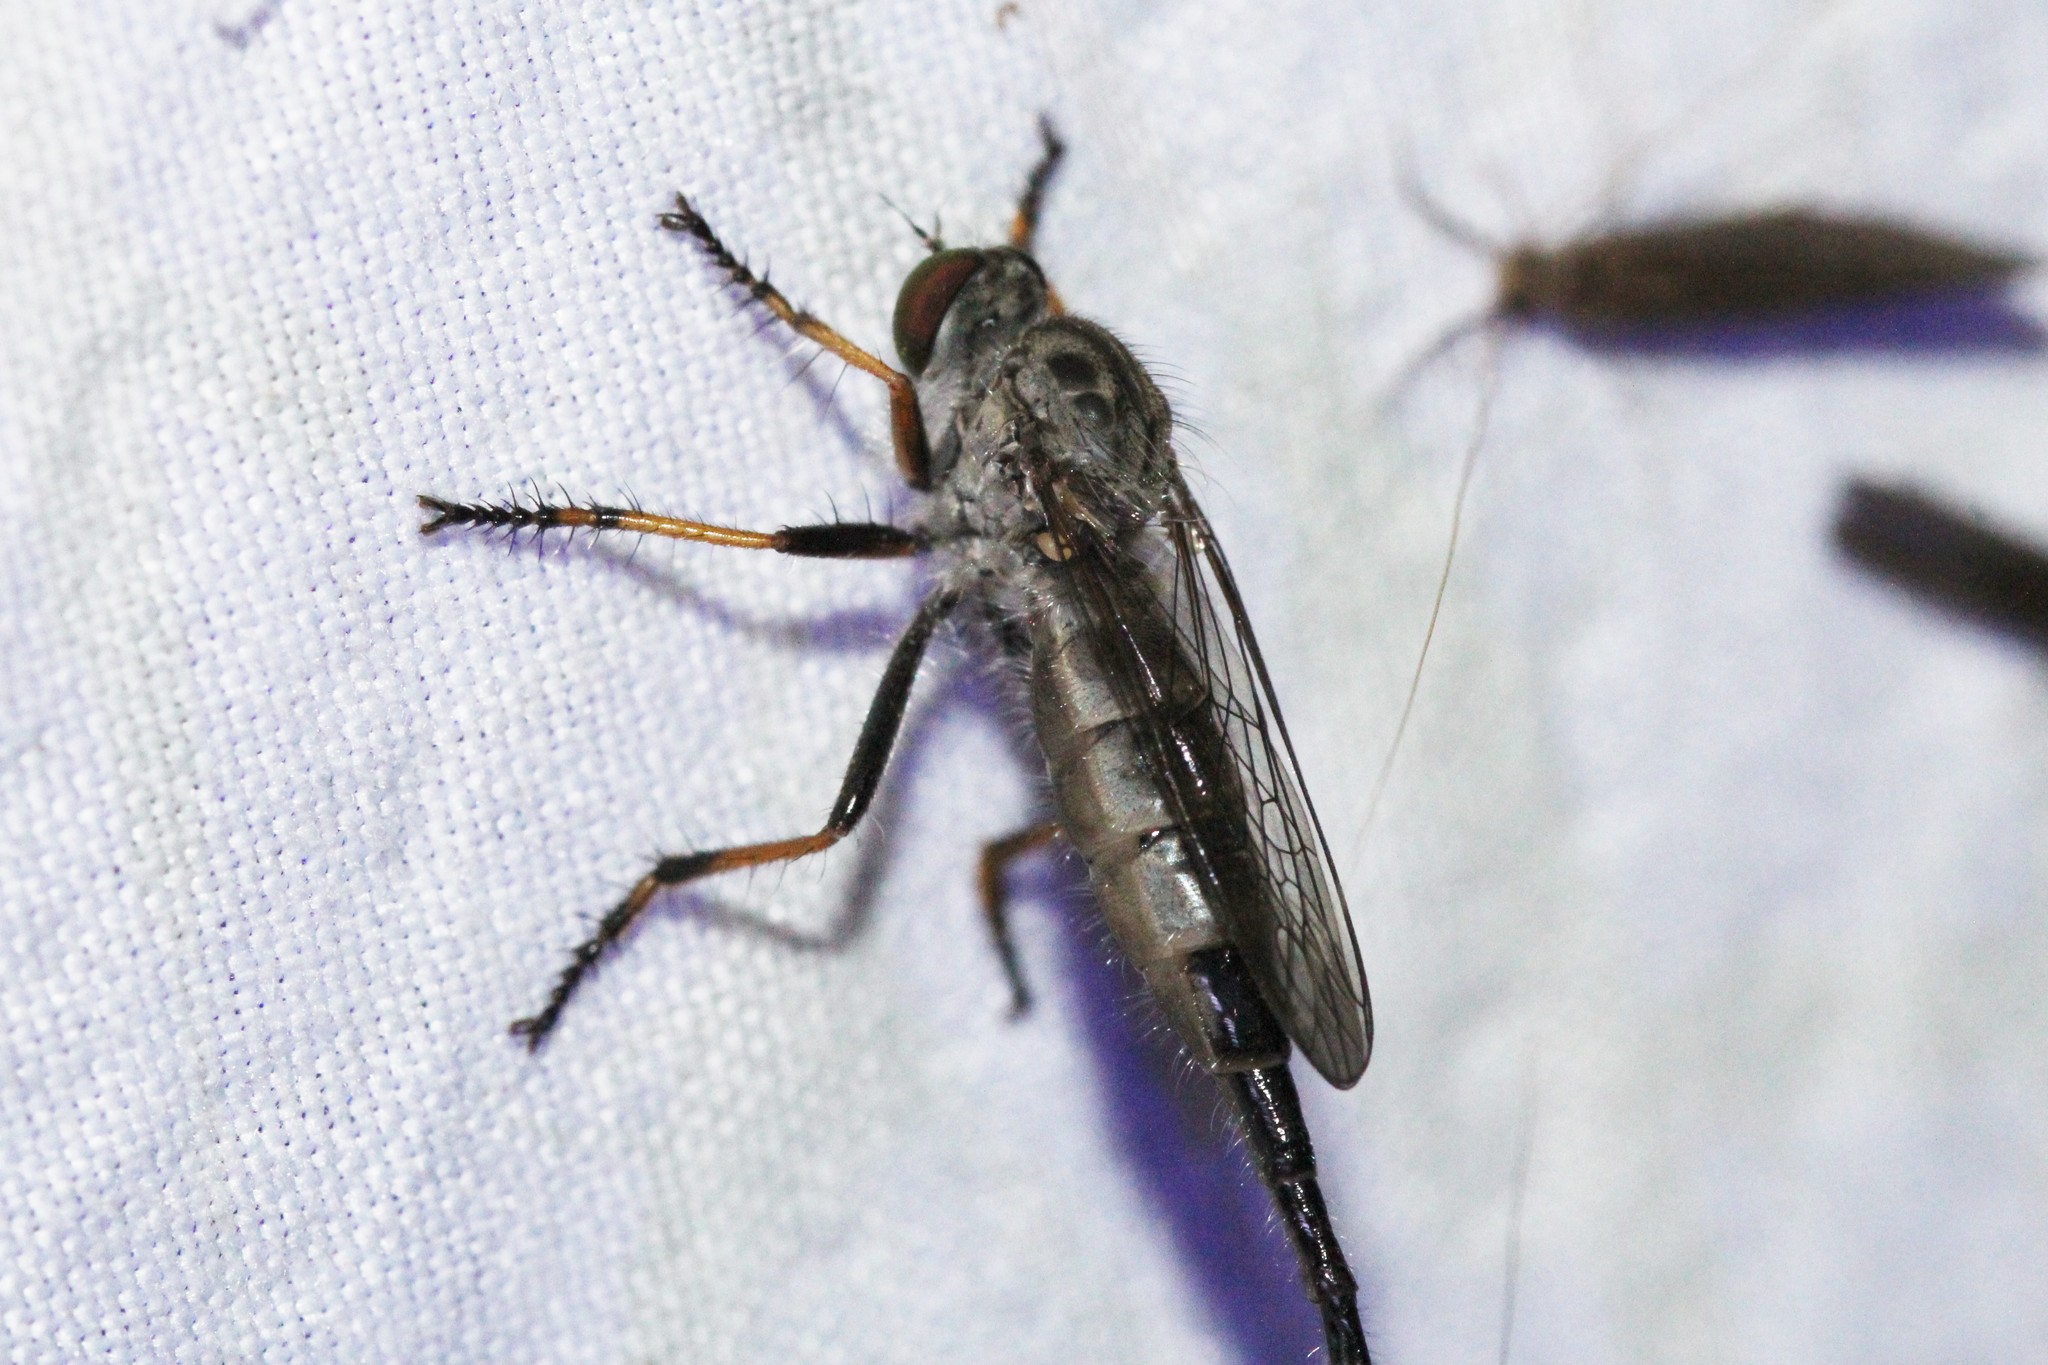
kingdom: Animalia
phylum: Arthropoda
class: Insecta
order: Diptera
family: Asilidae
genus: Asilus
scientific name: Asilus flavofemoratus
